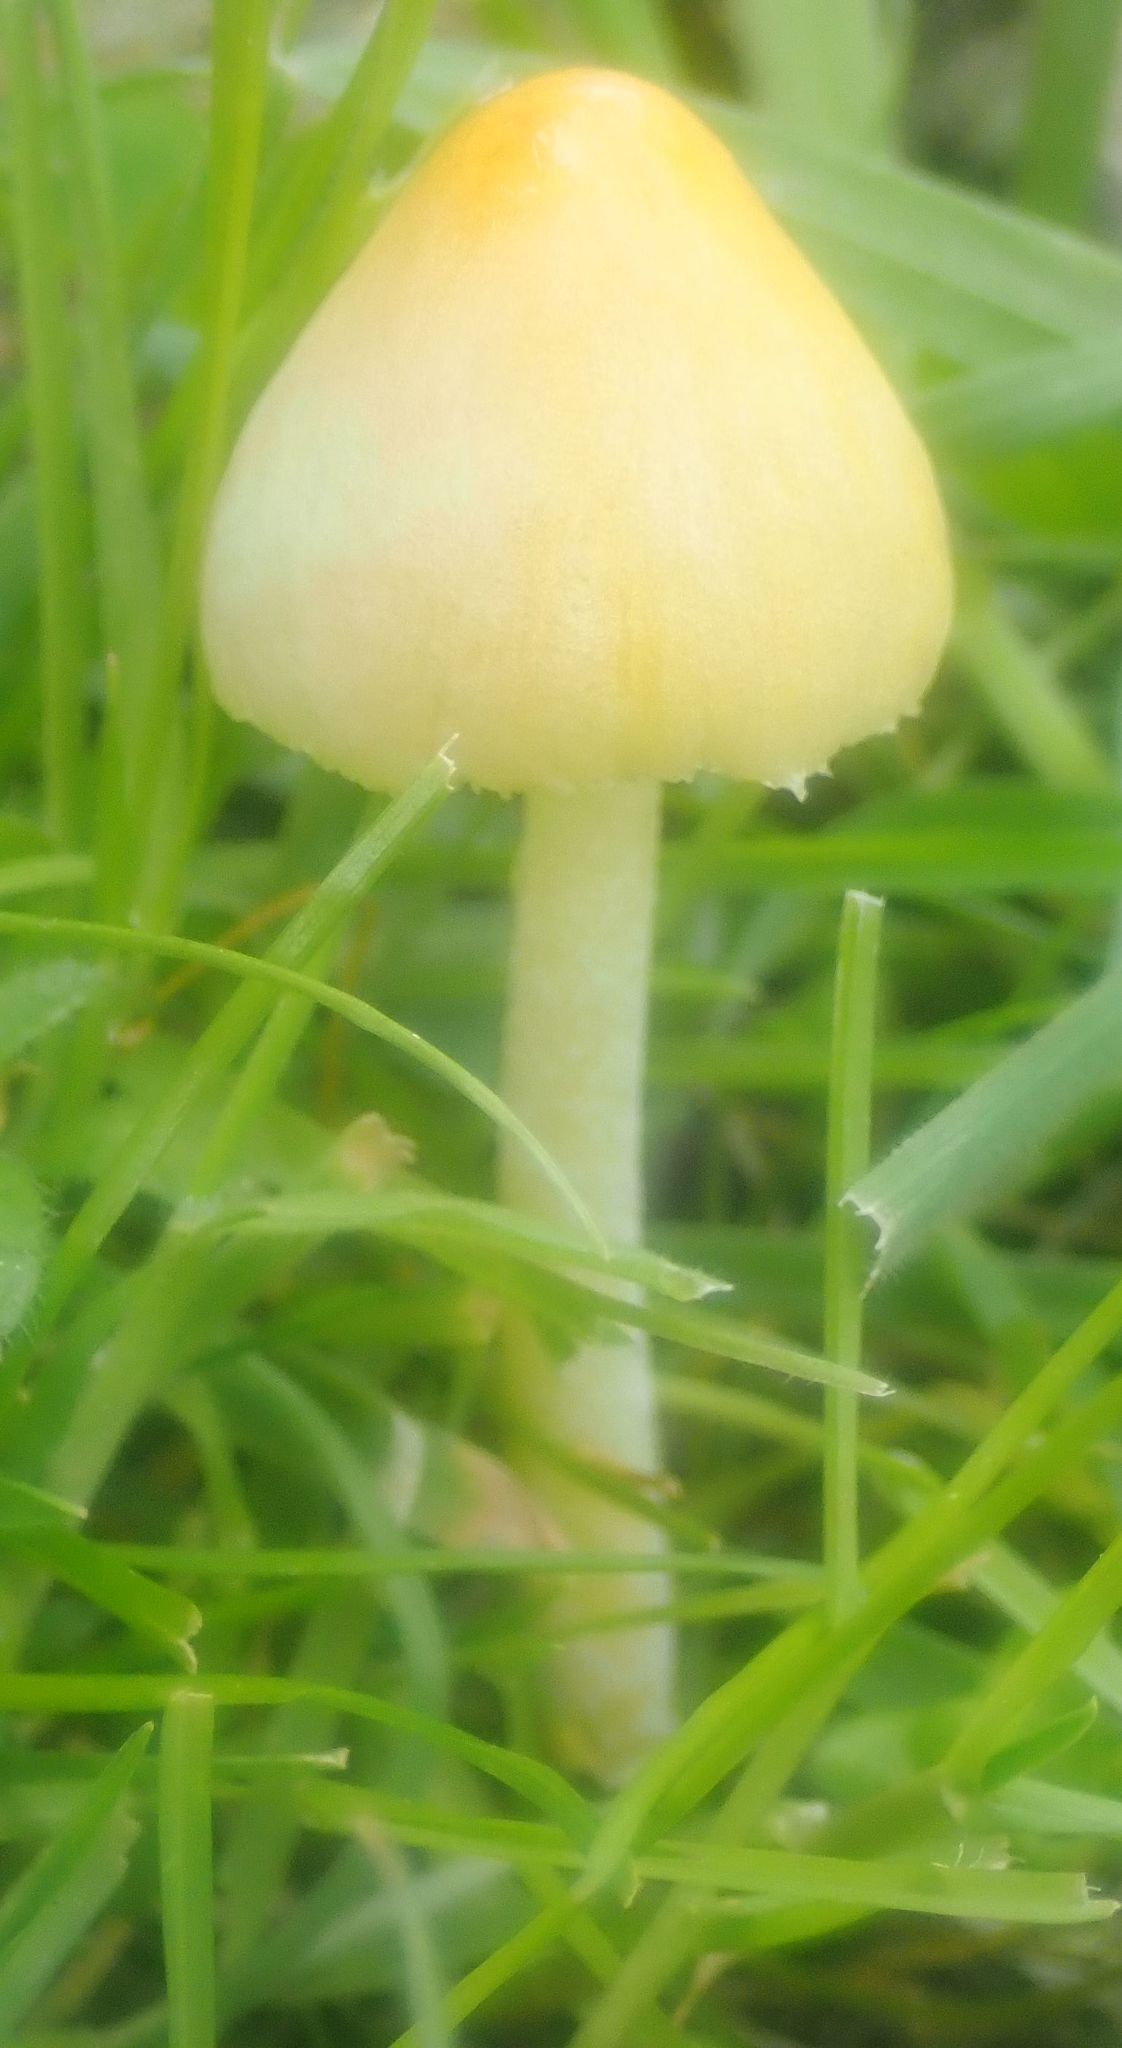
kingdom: Fungi
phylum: Basidiomycota
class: Agaricomycetes
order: Agaricales
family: Bolbitiaceae
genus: Bolbitius
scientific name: Bolbitius titubans
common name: Yellow fieldcap
